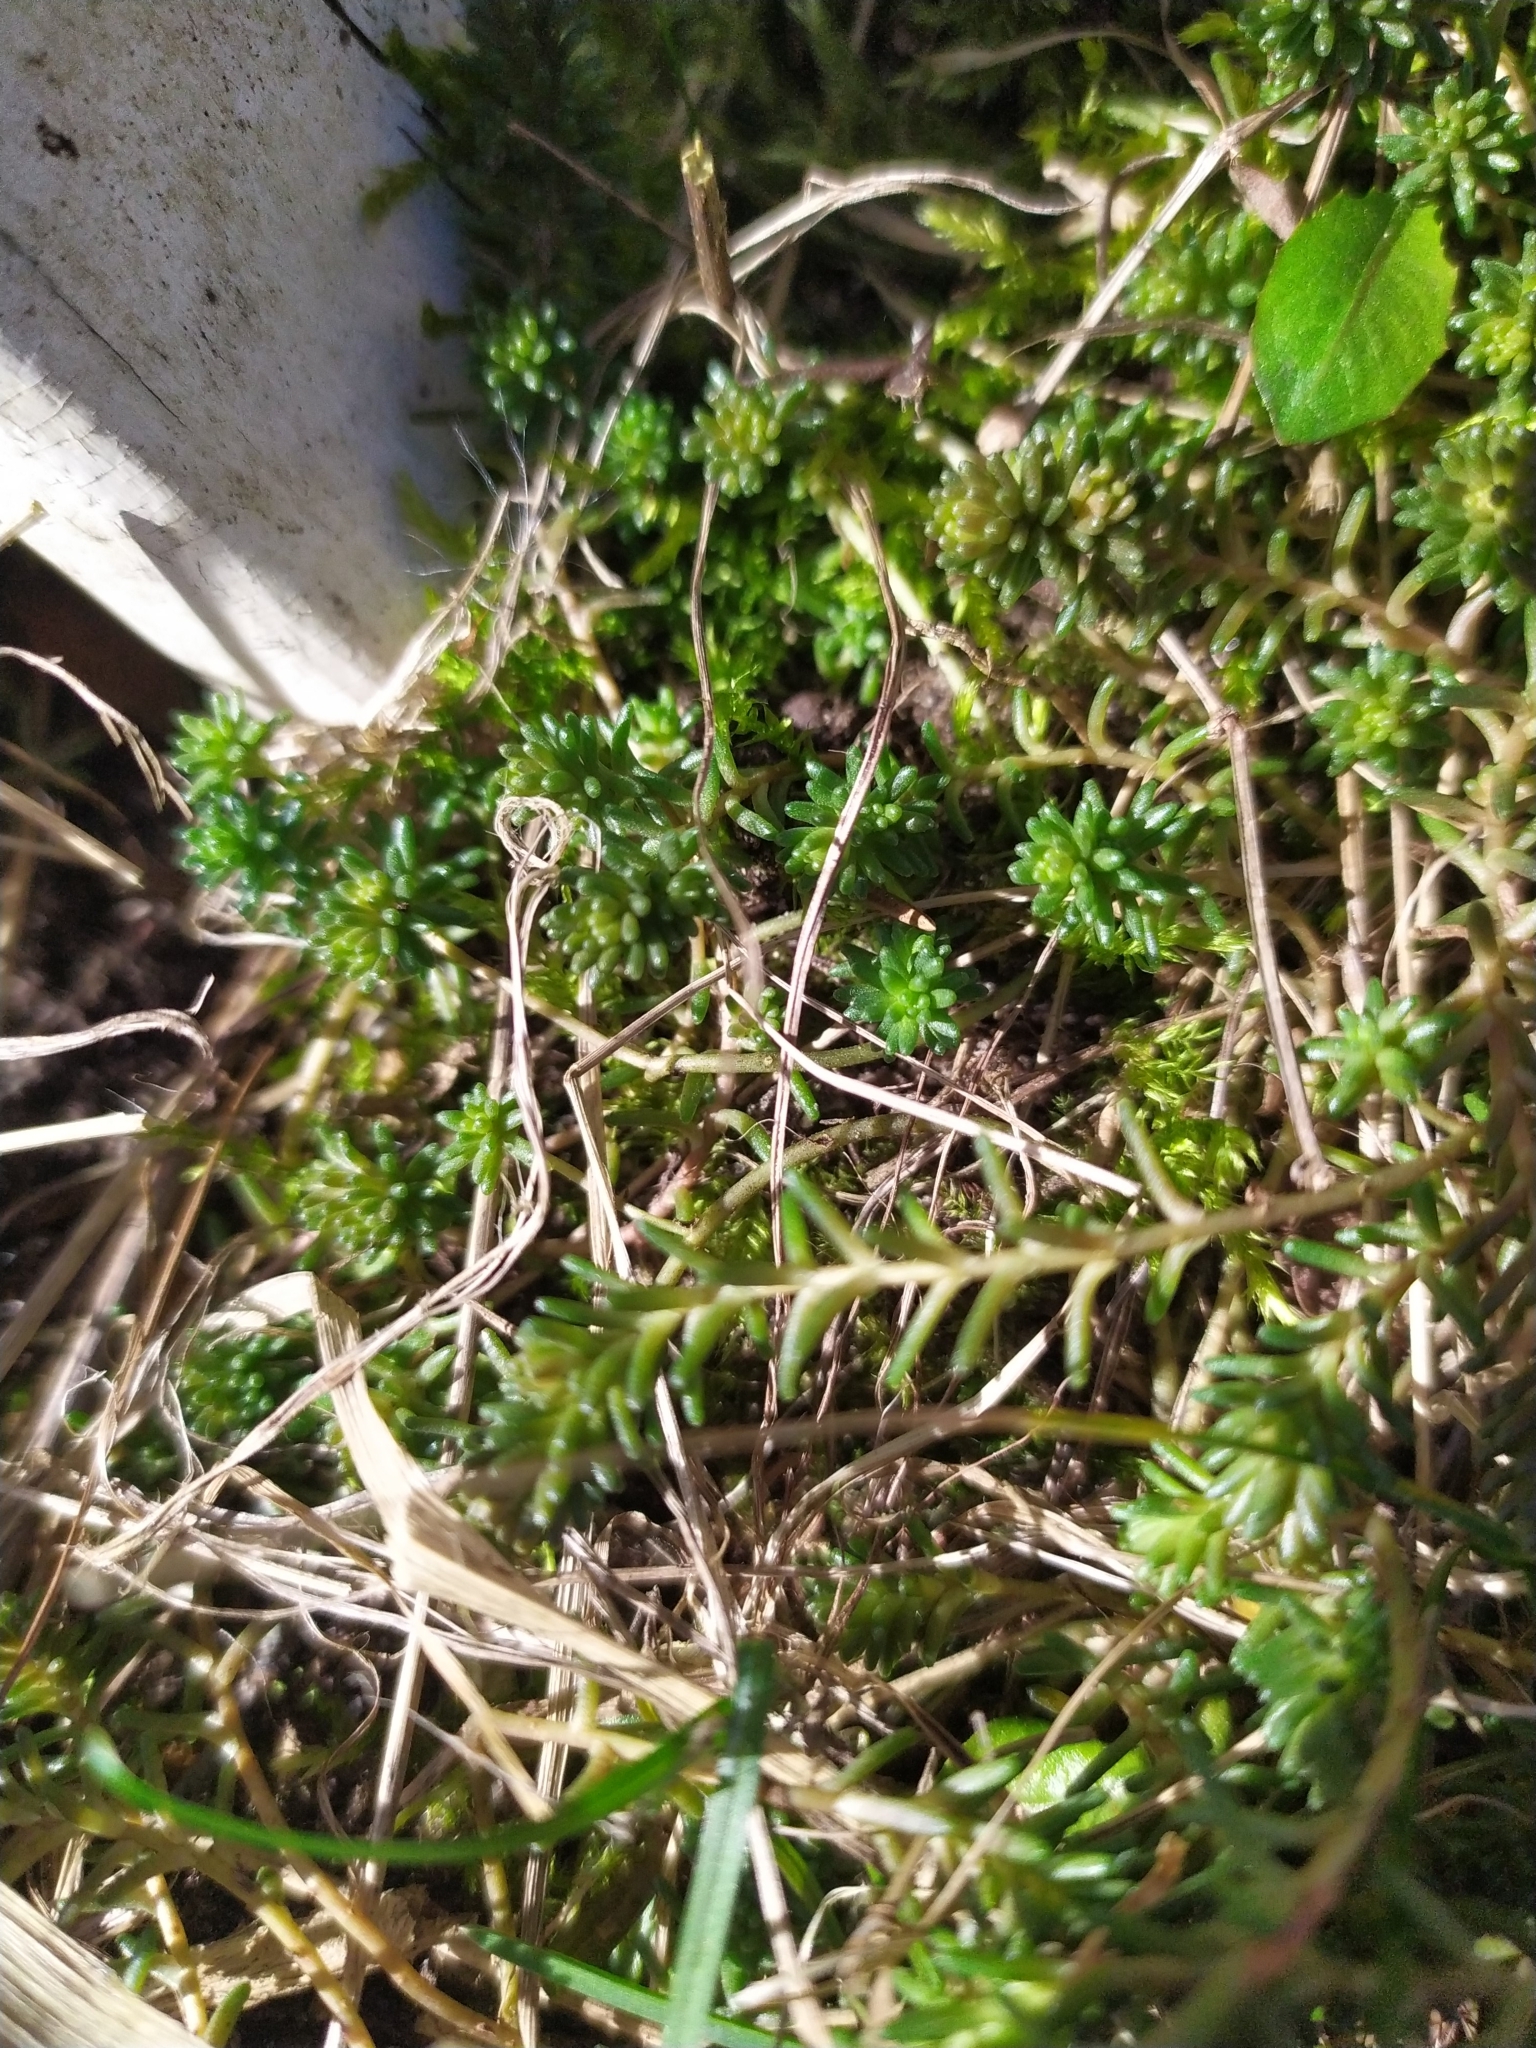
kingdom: Plantae
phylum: Tracheophyta
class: Magnoliopsida
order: Saxifragales
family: Crassulaceae
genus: Sedum
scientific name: Sedum sexangulare
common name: Tasteless stonecrop
